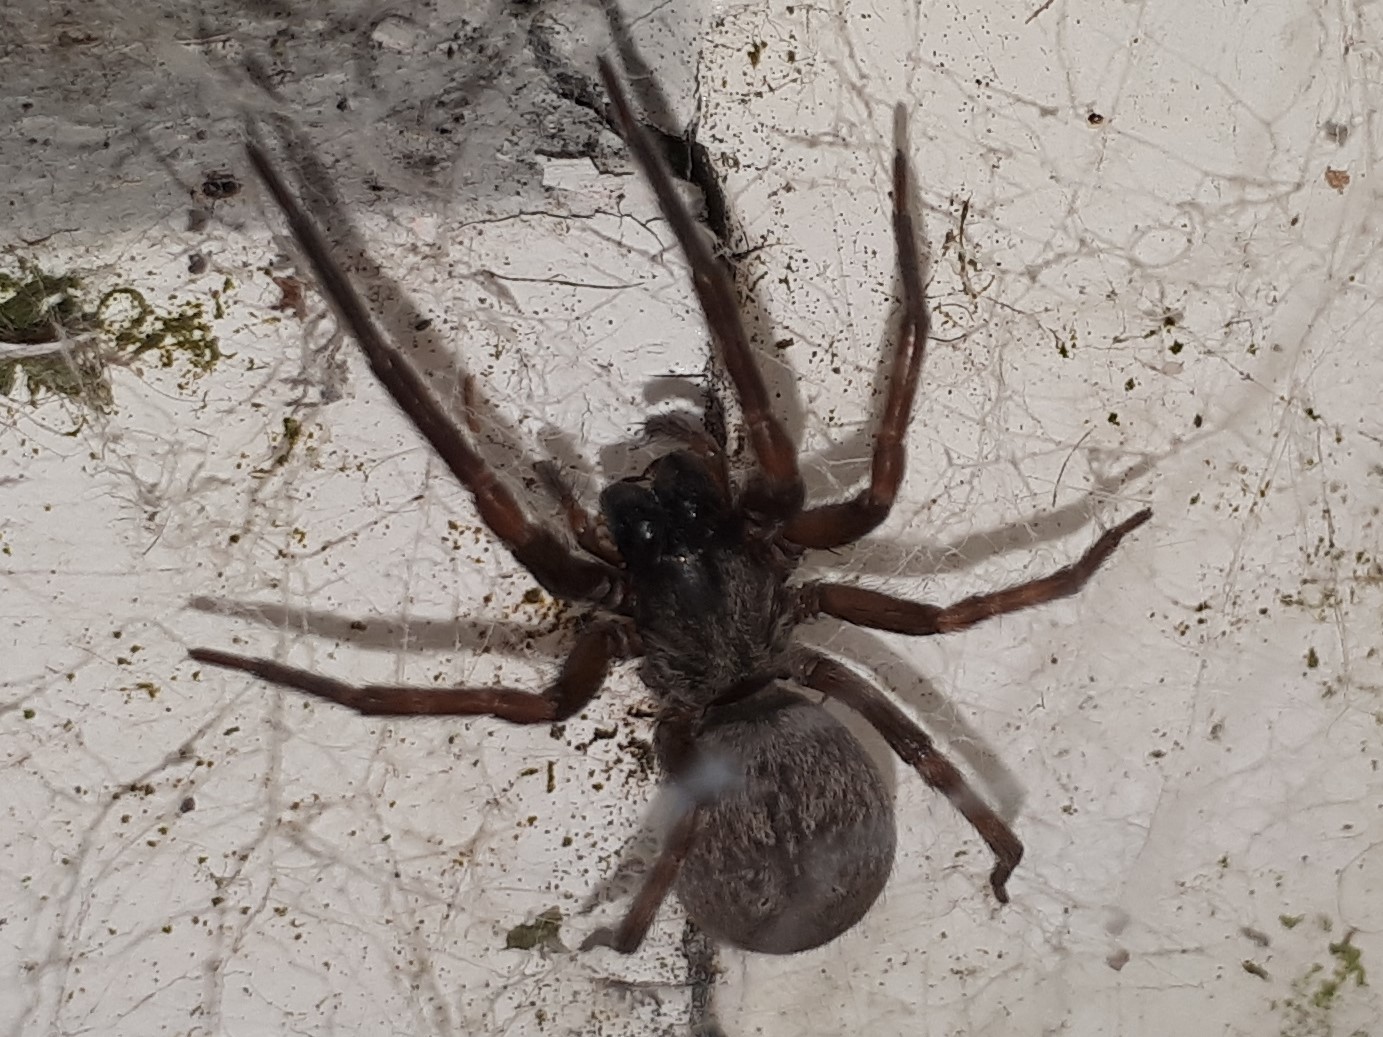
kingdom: Animalia
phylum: Arthropoda
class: Arachnida
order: Araneae
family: Desidae
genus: Badumna
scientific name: Badumna longinqua
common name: Gray house spider
